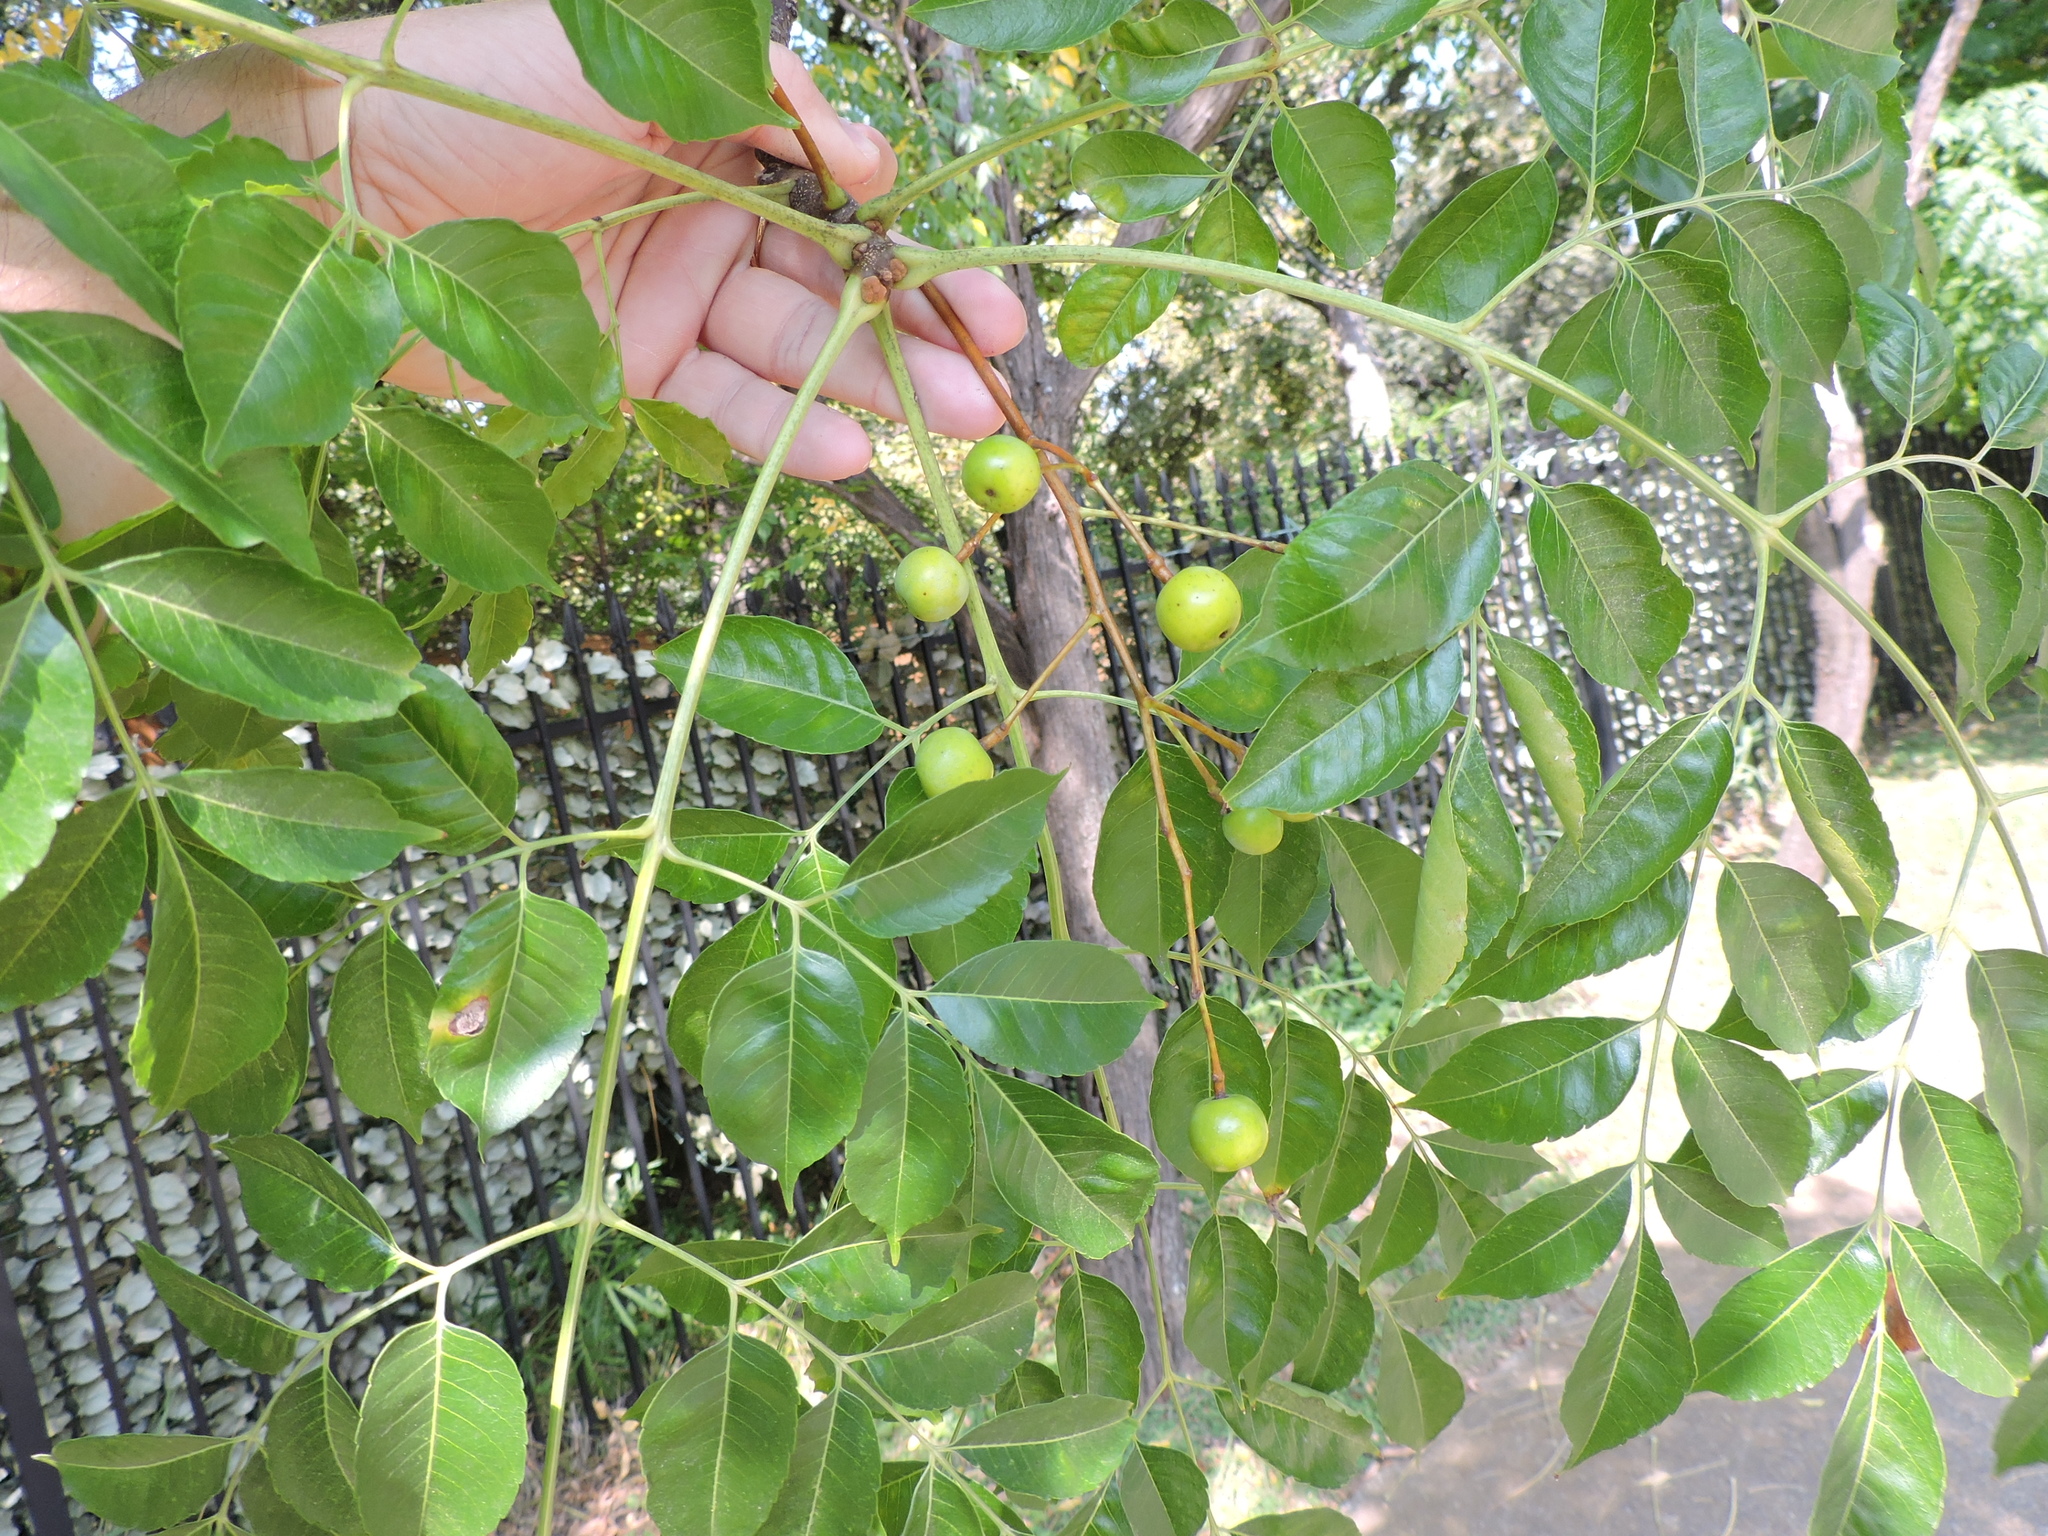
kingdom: Plantae
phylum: Tracheophyta
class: Magnoliopsida
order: Sapindales
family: Meliaceae
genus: Melia
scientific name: Melia azedarach
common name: Chinaberrytree
